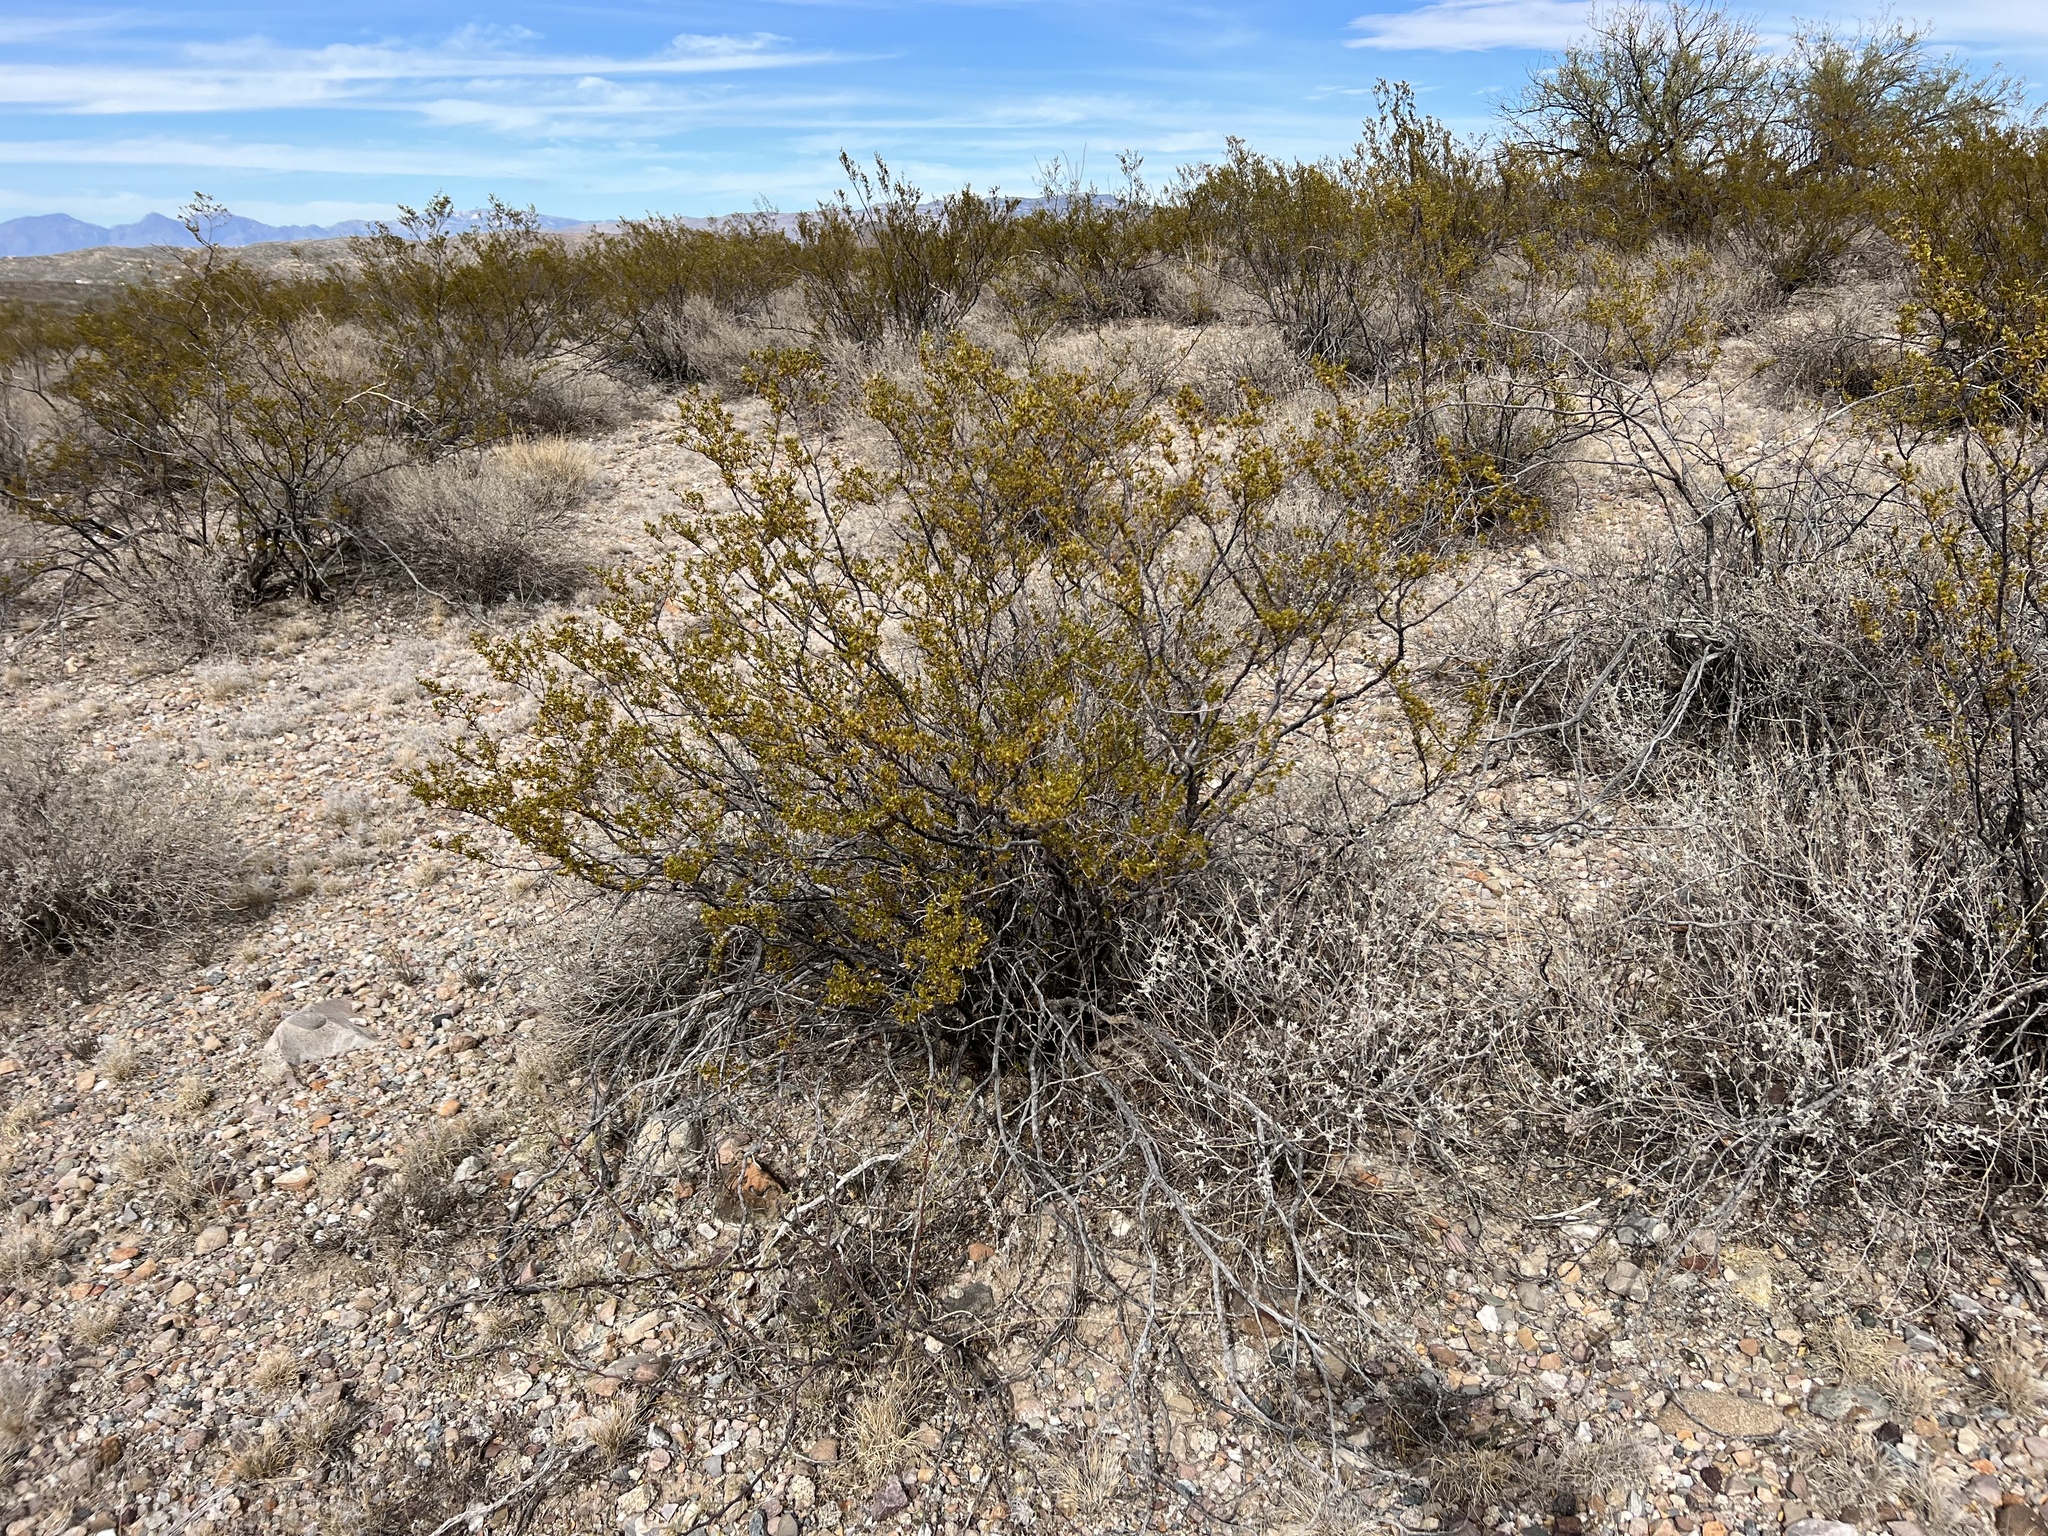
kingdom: Plantae
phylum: Tracheophyta
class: Magnoliopsida
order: Zygophyllales
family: Zygophyllaceae
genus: Larrea
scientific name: Larrea tridentata
